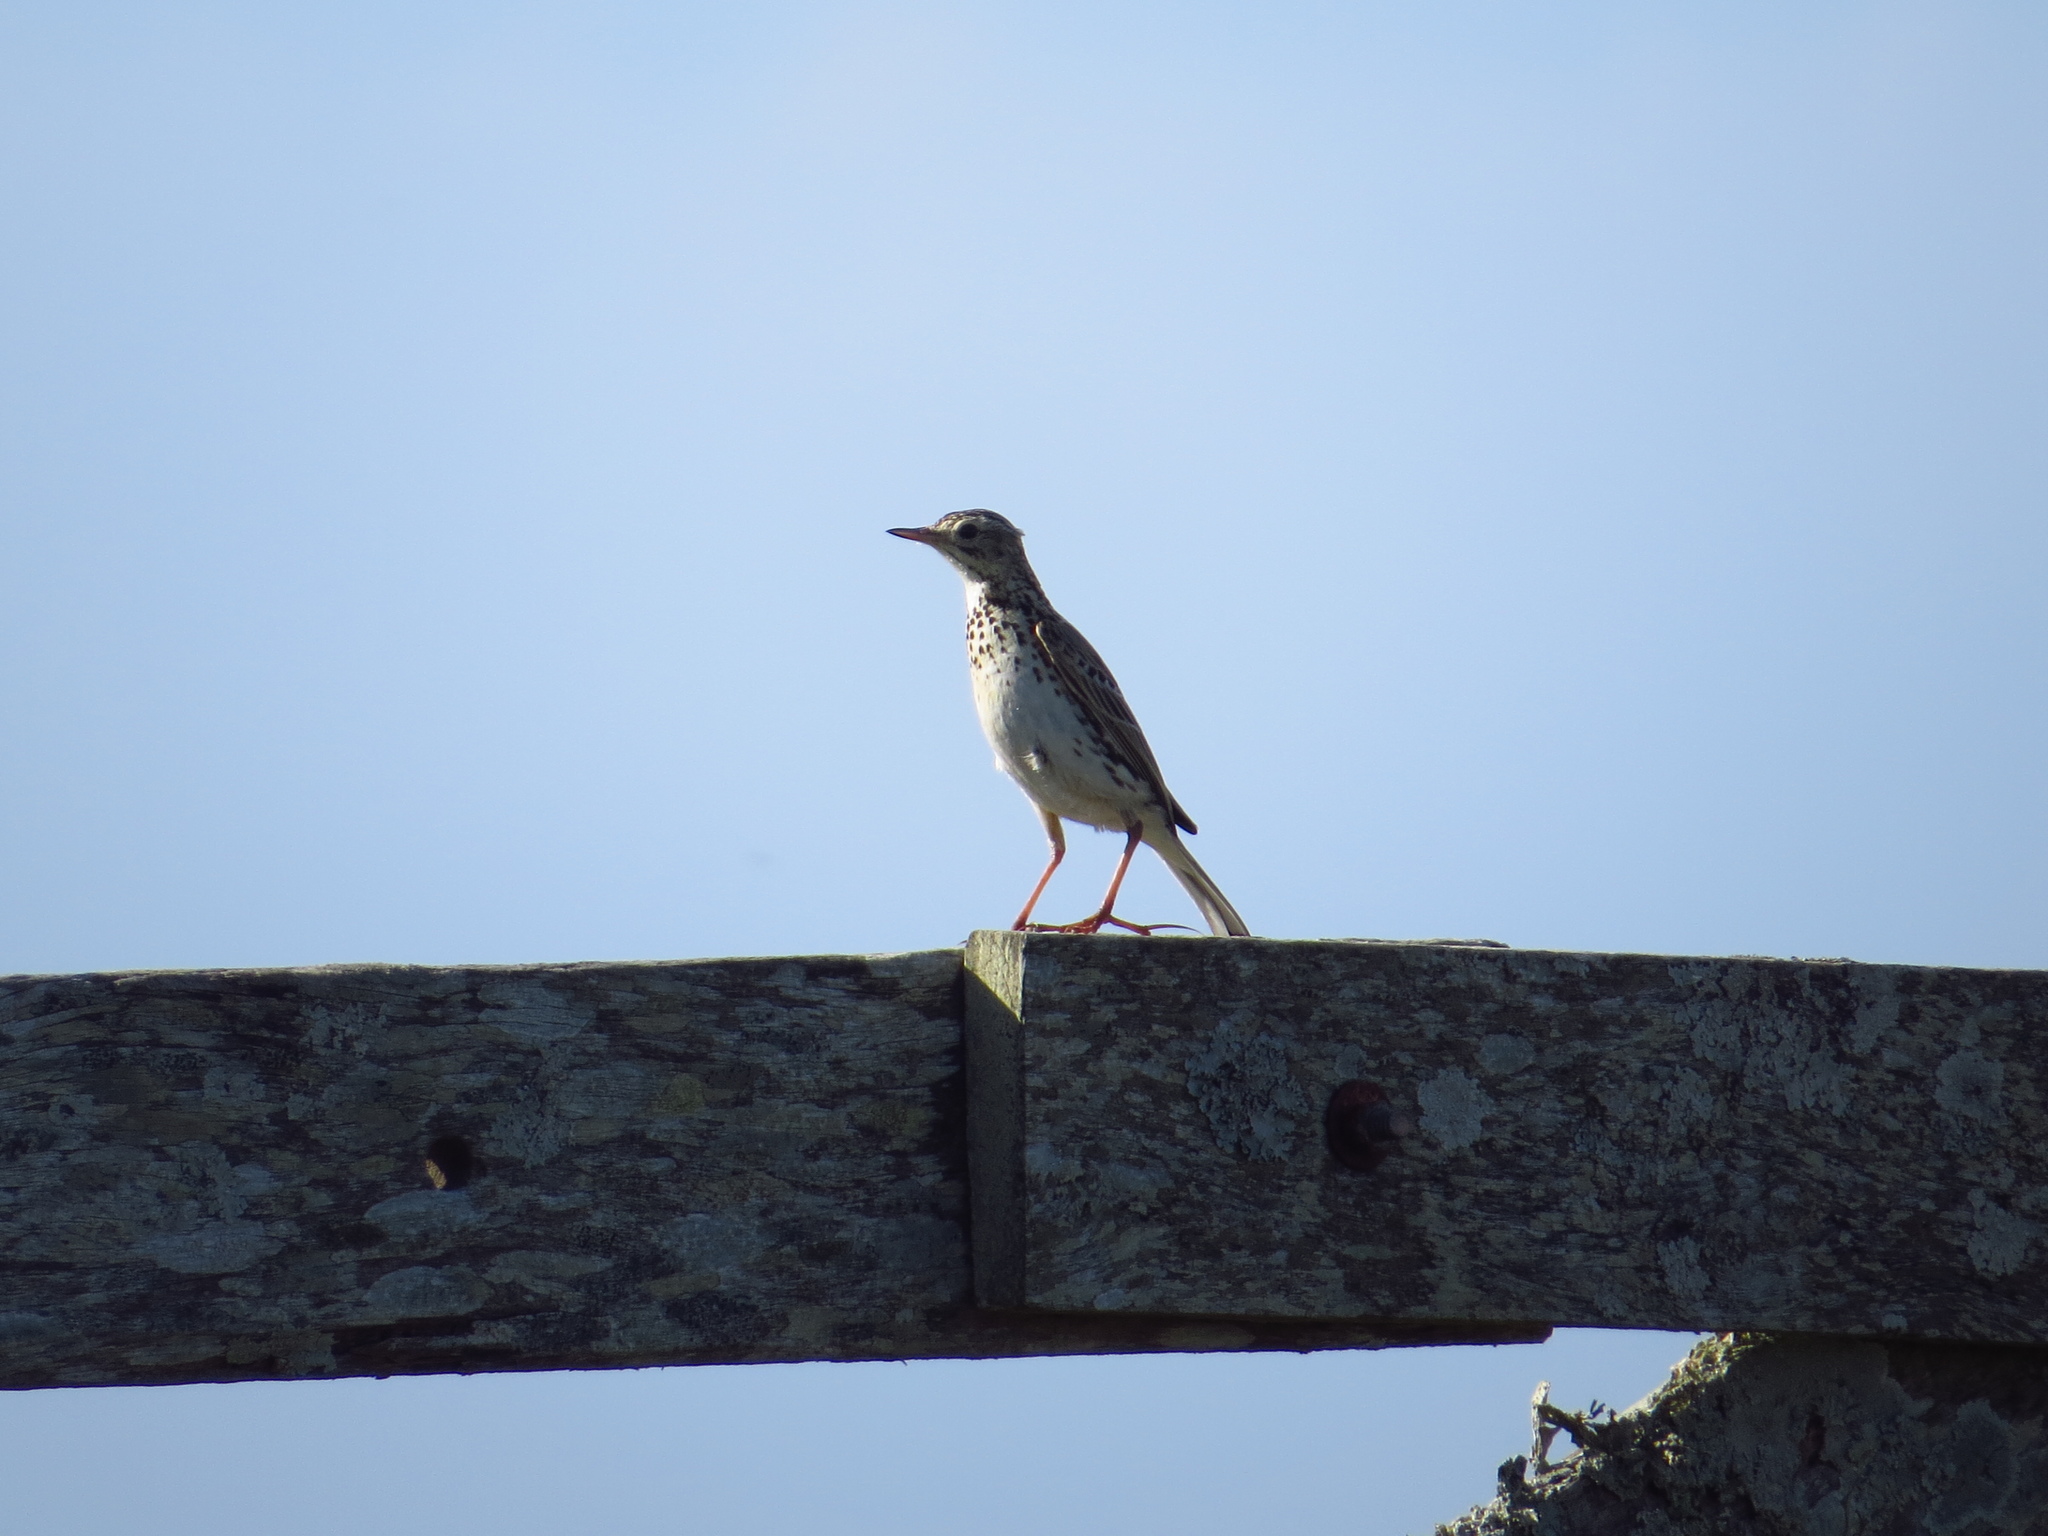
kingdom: Animalia
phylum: Chordata
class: Aves
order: Passeriformes
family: Motacillidae
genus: Anthus
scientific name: Anthus correndera
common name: Correndera pipit
